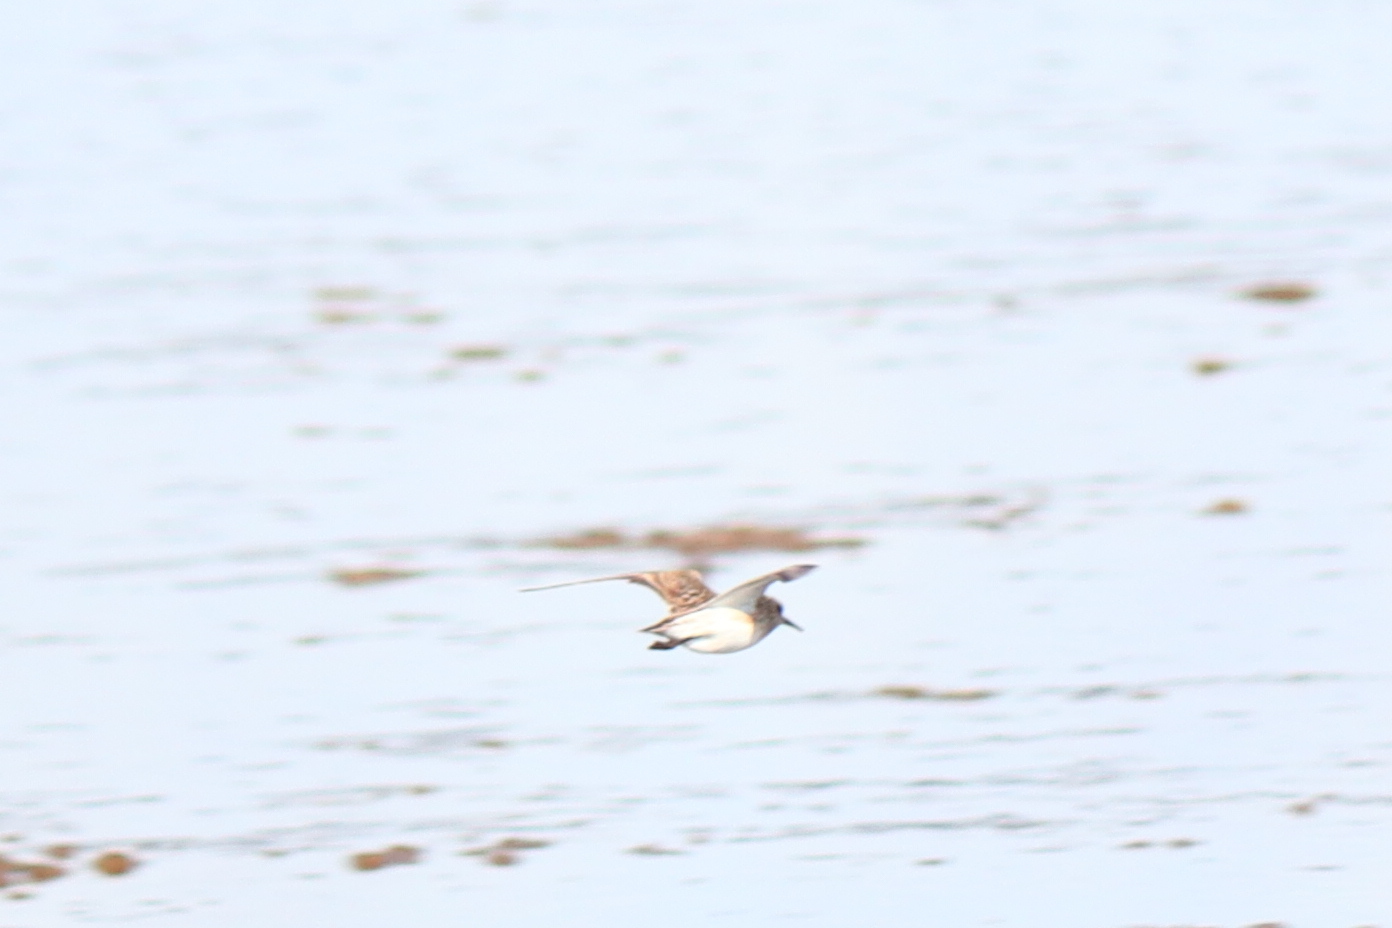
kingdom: Animalia
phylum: Chordata
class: Aves
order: Charadriiformes
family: Scolopacidae
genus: Calidris
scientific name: Calidris bairdii
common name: Baird's sandpiper
